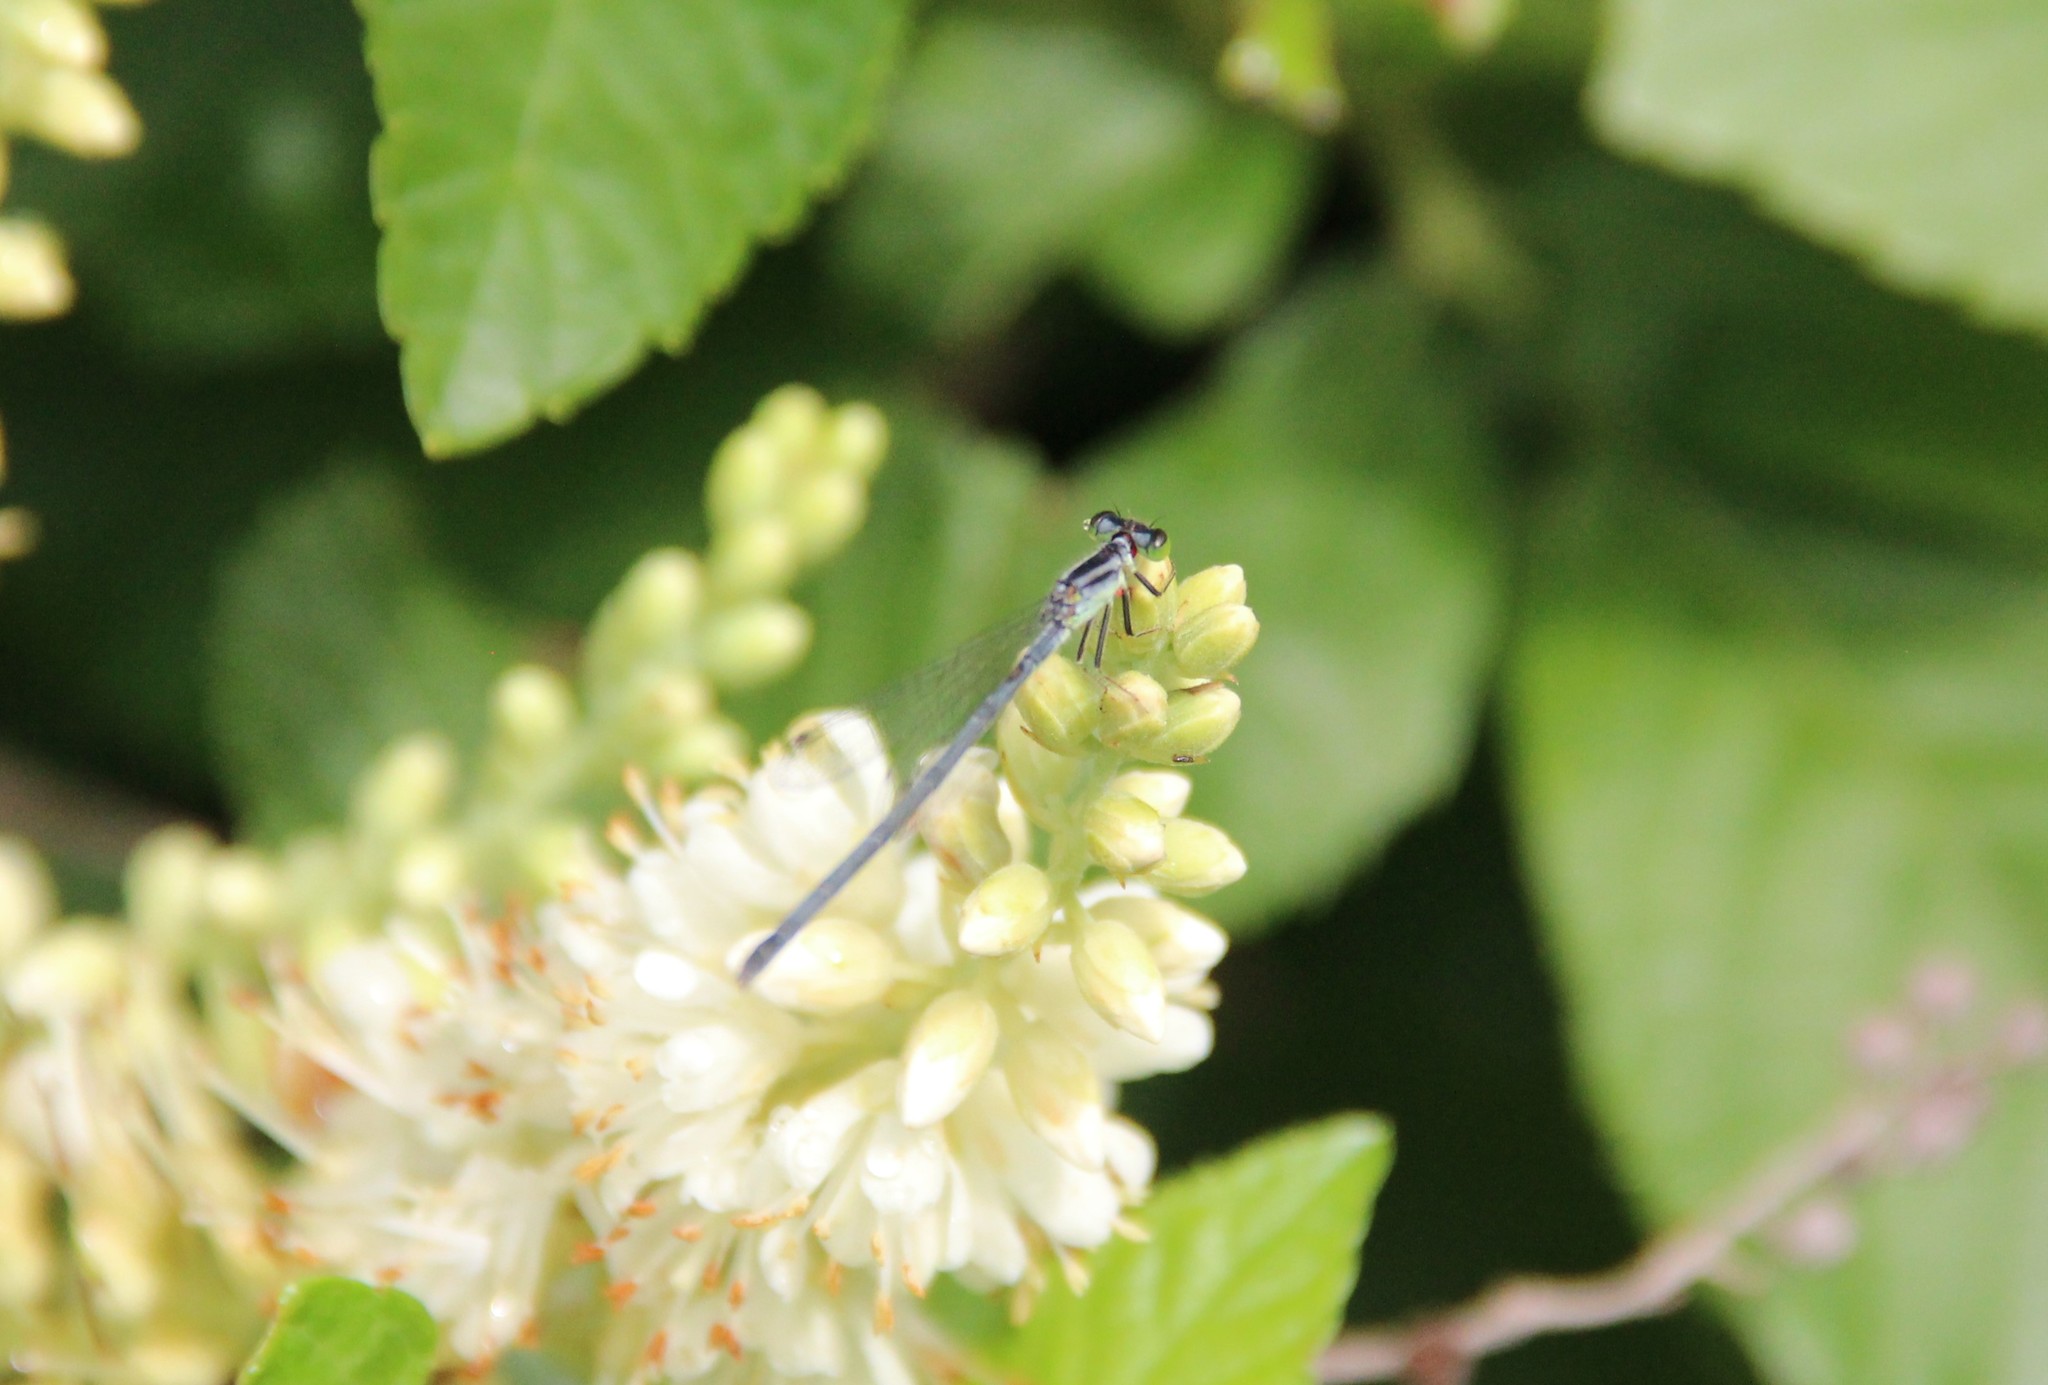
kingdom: Animalia
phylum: Arthropoda
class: Insecta
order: Odonata
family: Coenagrionidae
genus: Ischnura
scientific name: Ischnura verticalis
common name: Eastern forktail
